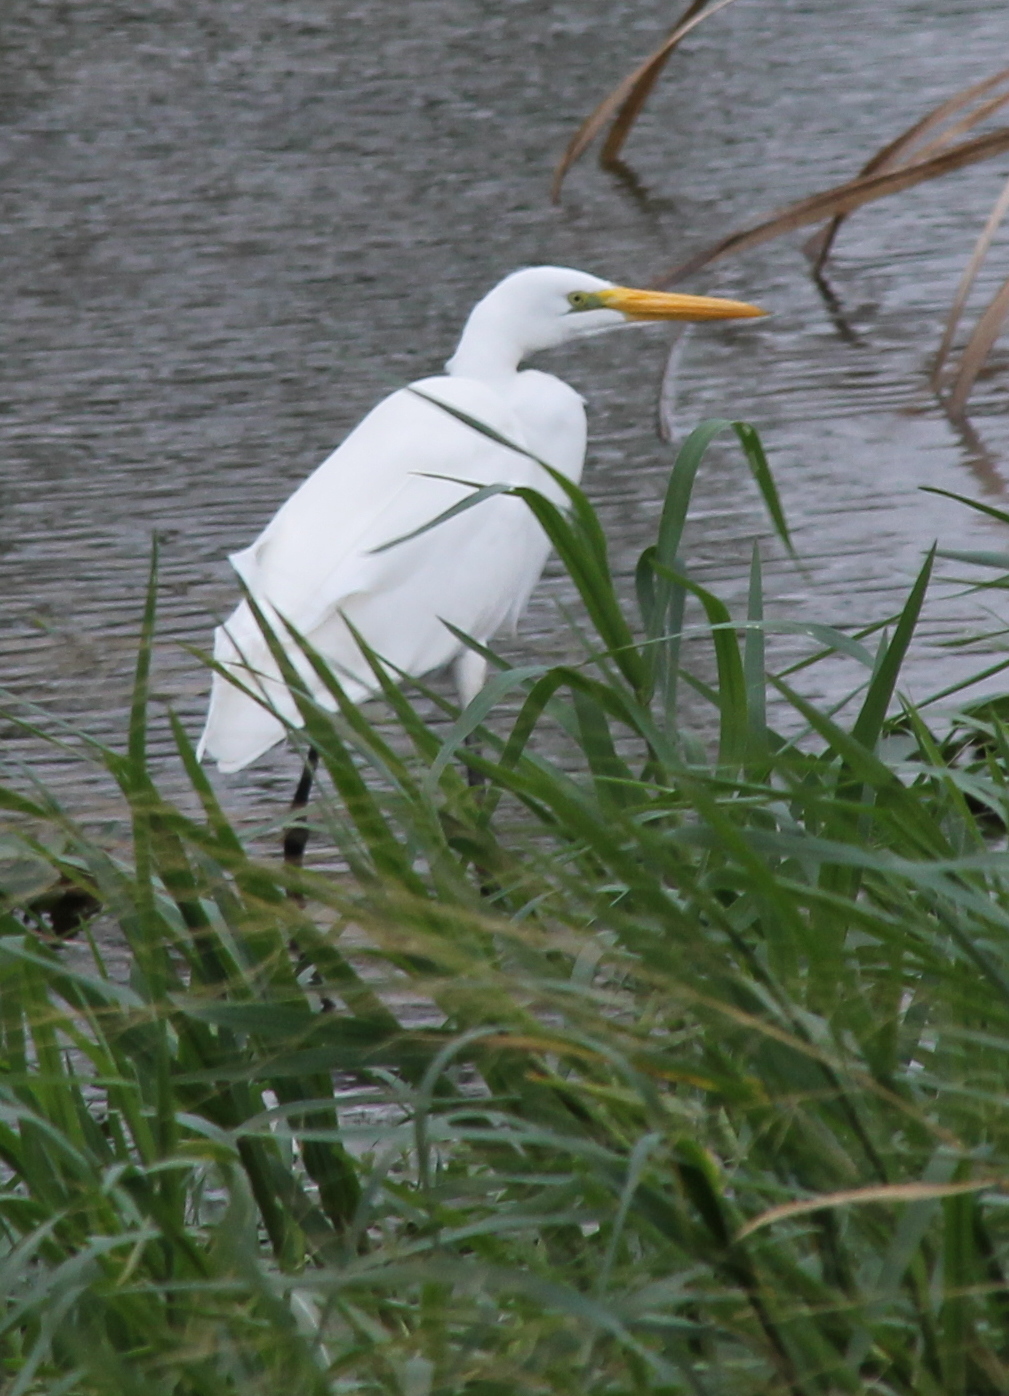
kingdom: Animalia
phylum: Chordata
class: Aves
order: Pelecaniformes
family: Ardeidae
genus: Ardea
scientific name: Ardea alba
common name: Great egret
